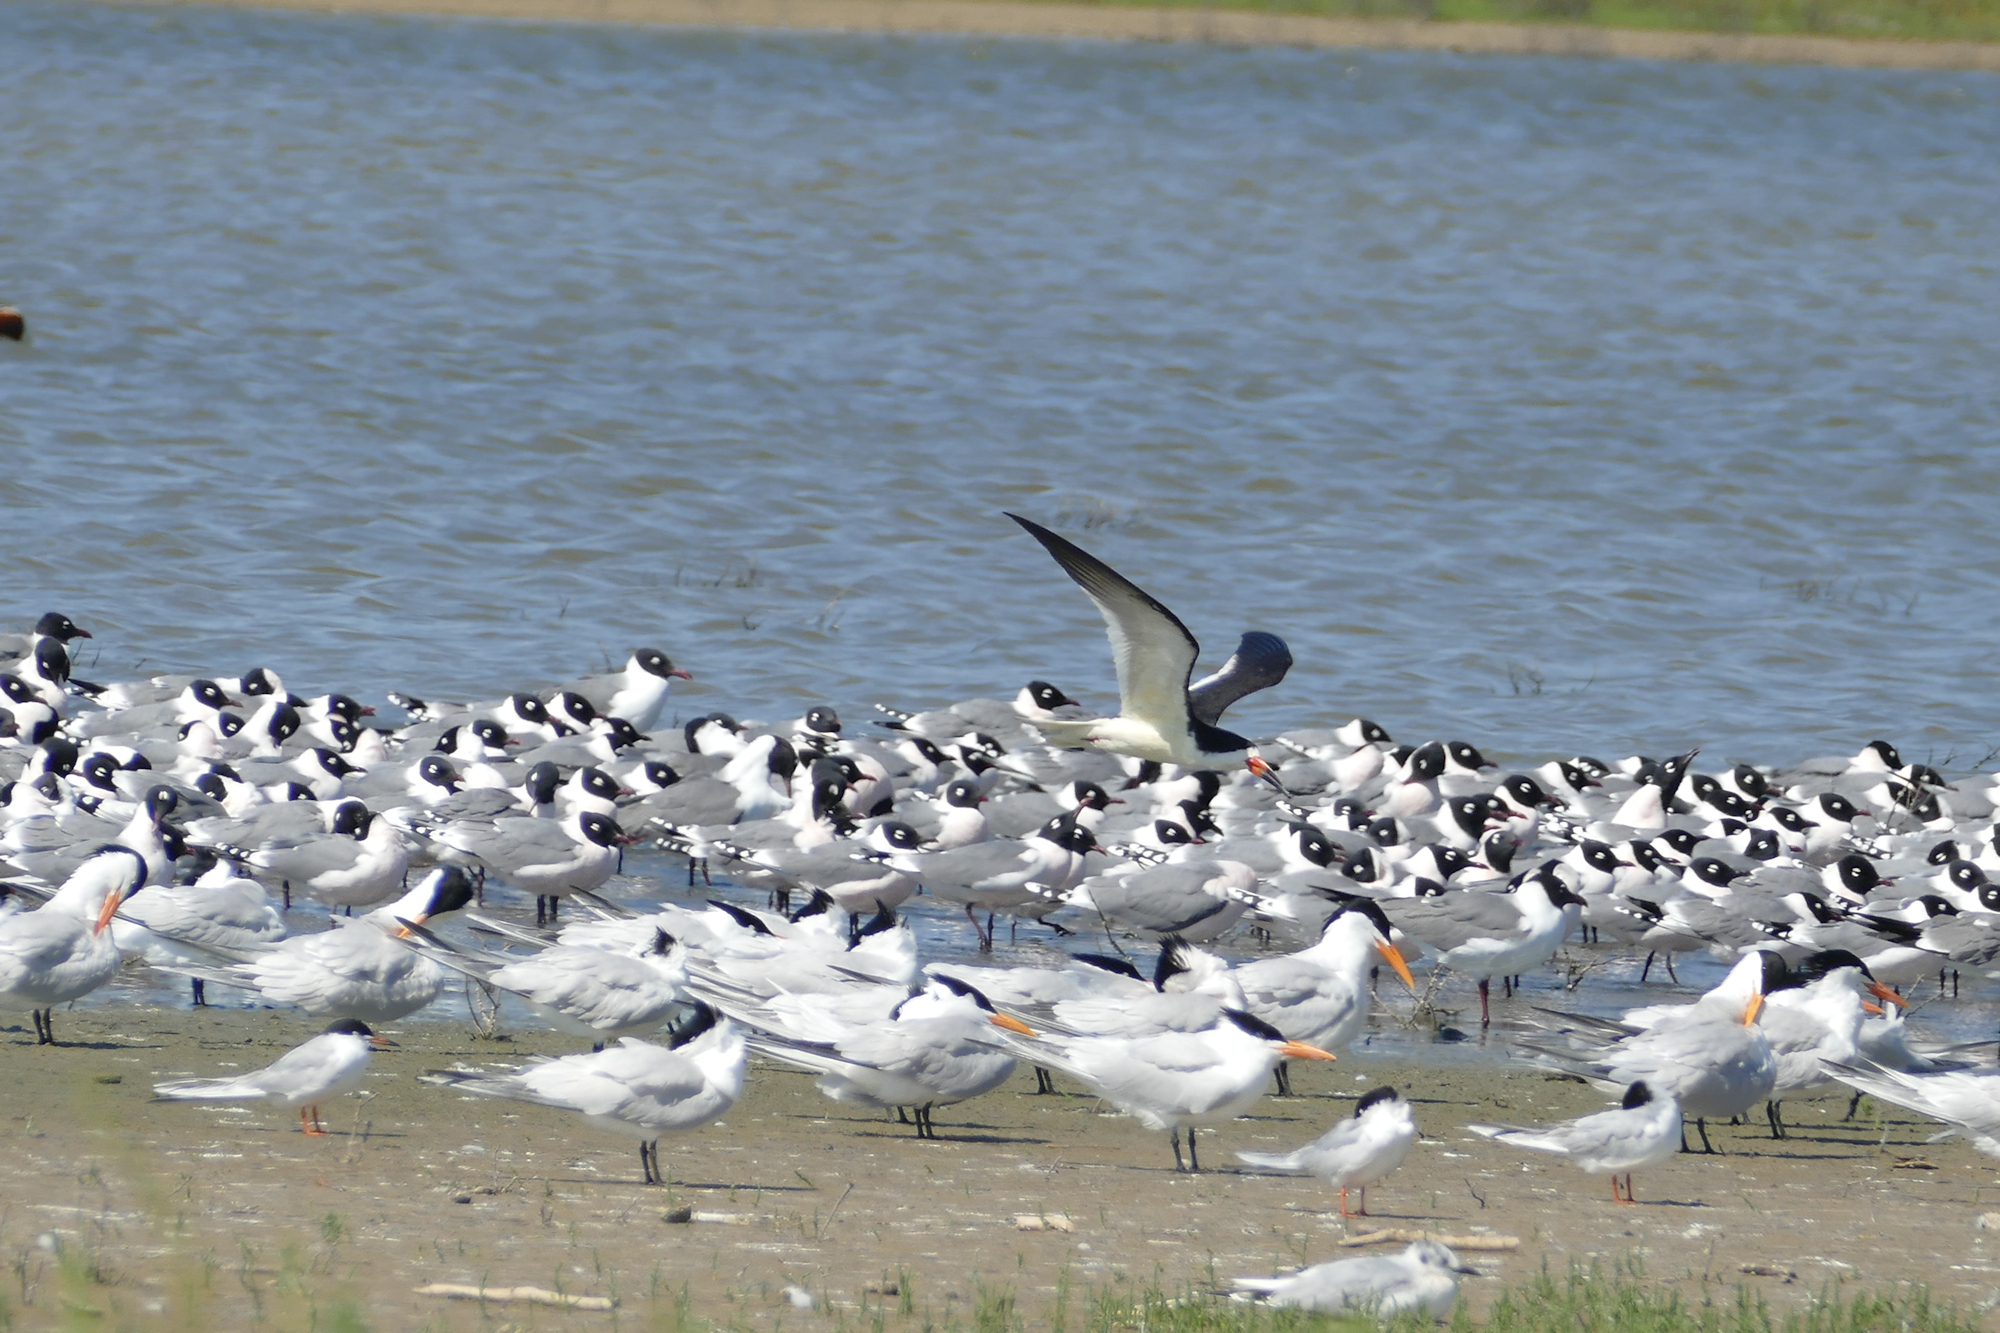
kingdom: Animalia
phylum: Chordata
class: Aves
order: Charadriiformes
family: Laridae
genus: Leucophaeus
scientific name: Leucophaeus pipixcan
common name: Franklin's gull
